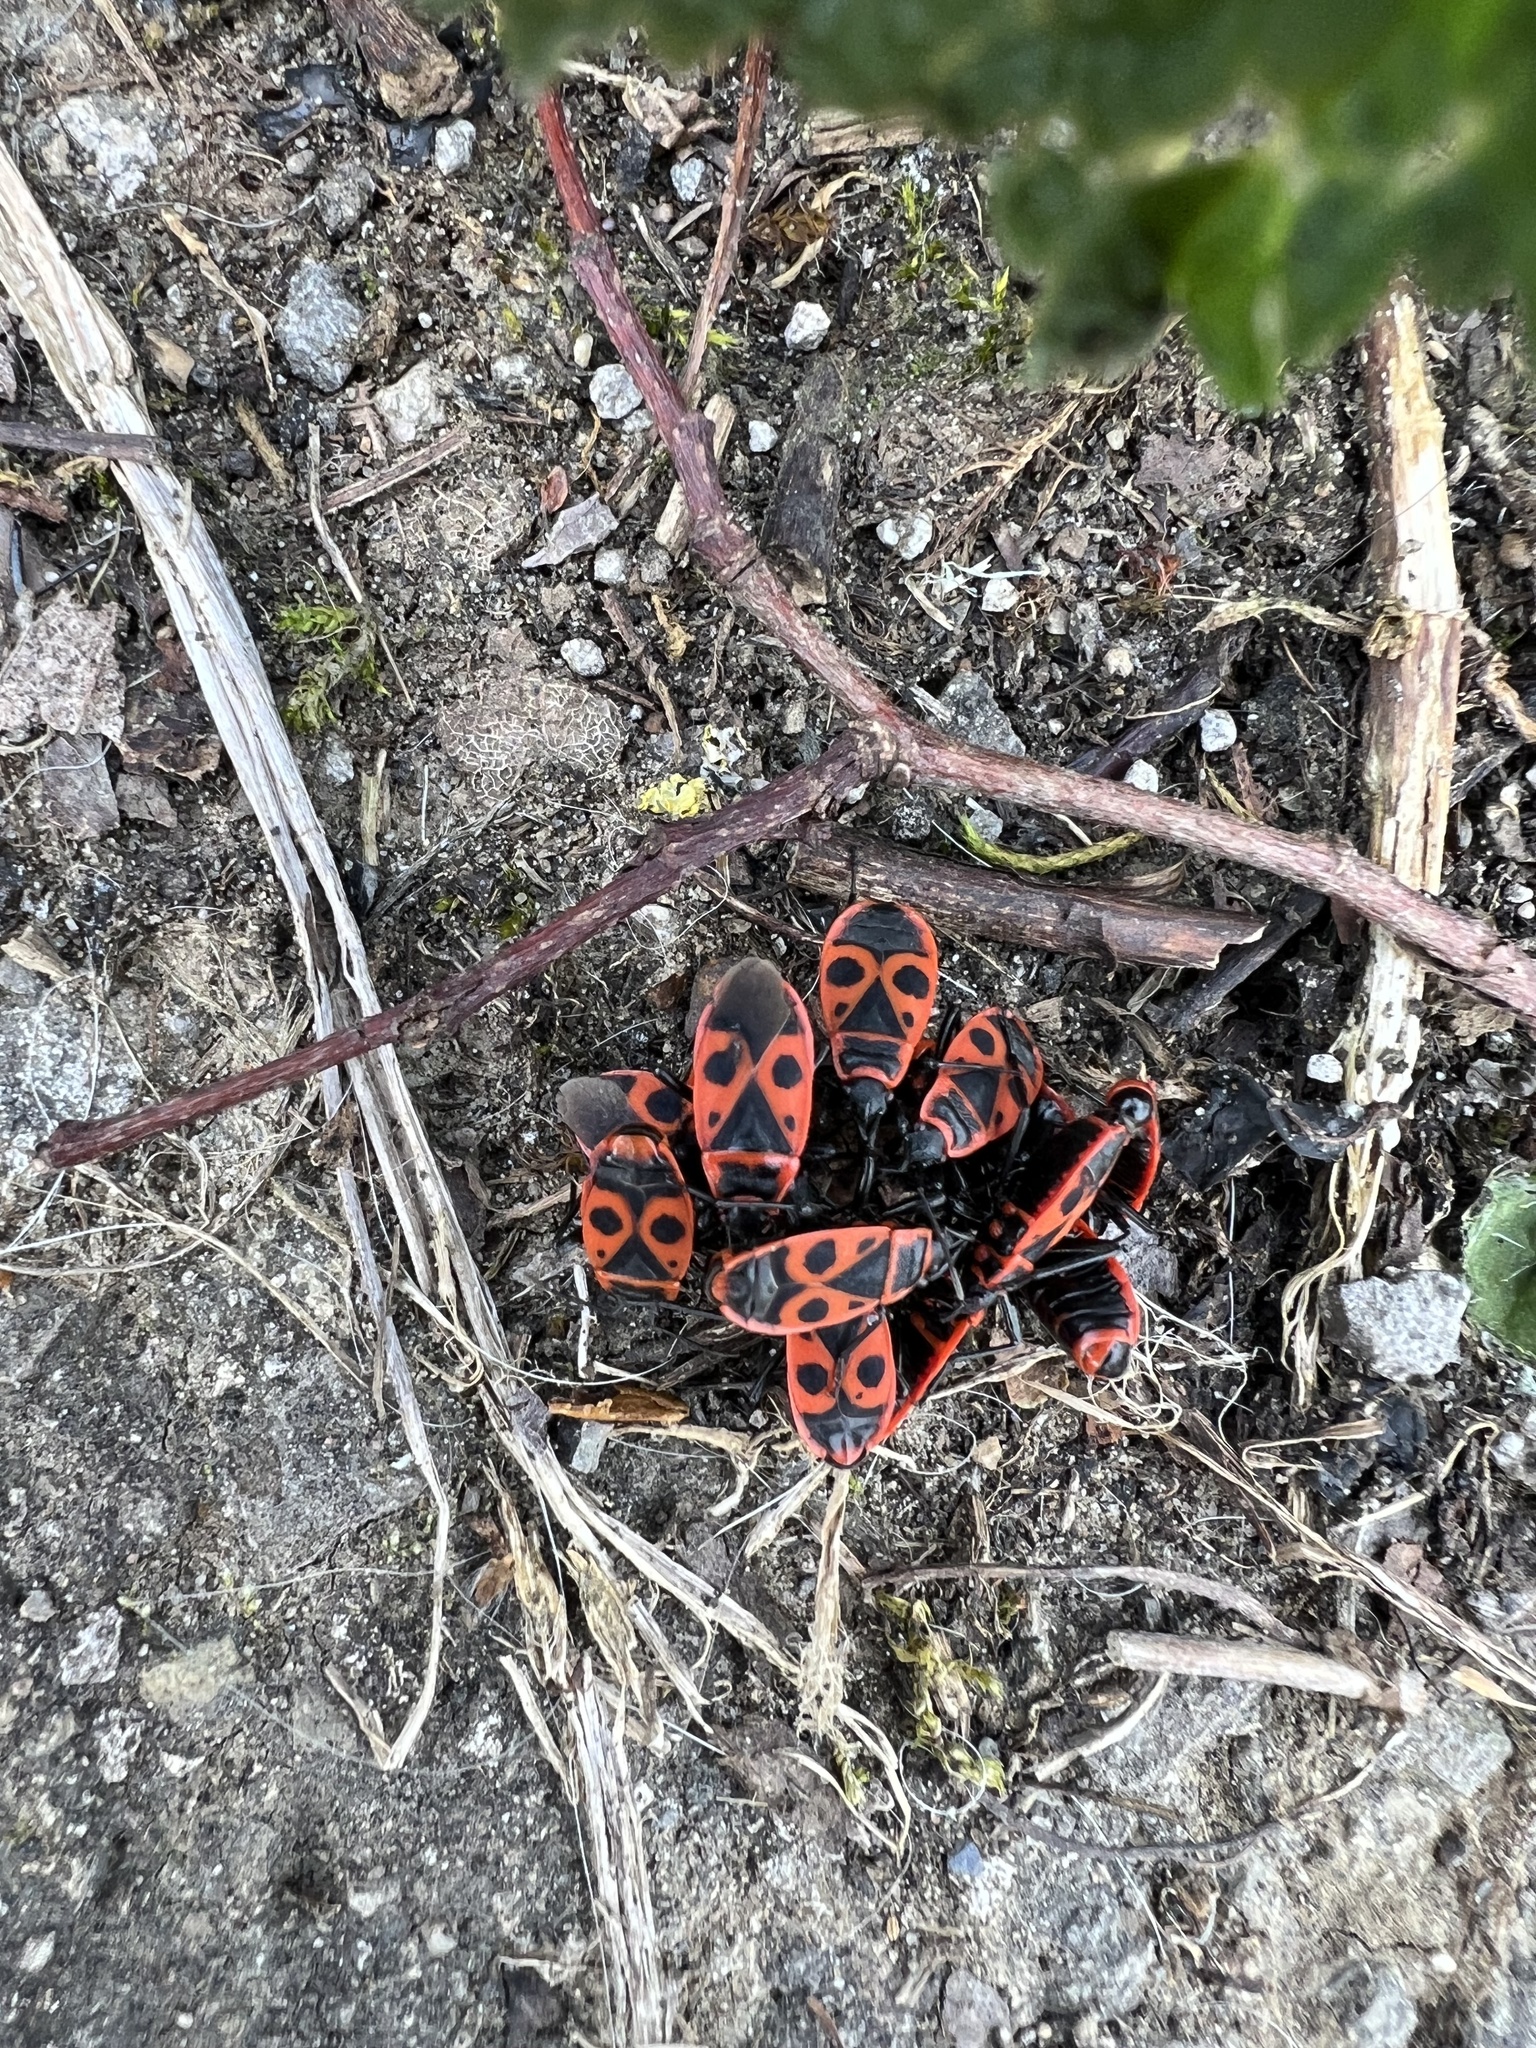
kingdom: Animalia
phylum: Arthropoda
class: Insecta
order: Hemiptera
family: Pyrrhocoridae
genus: Pyrrhocoris
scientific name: Pyrrhocoris apterus
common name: Firebug
